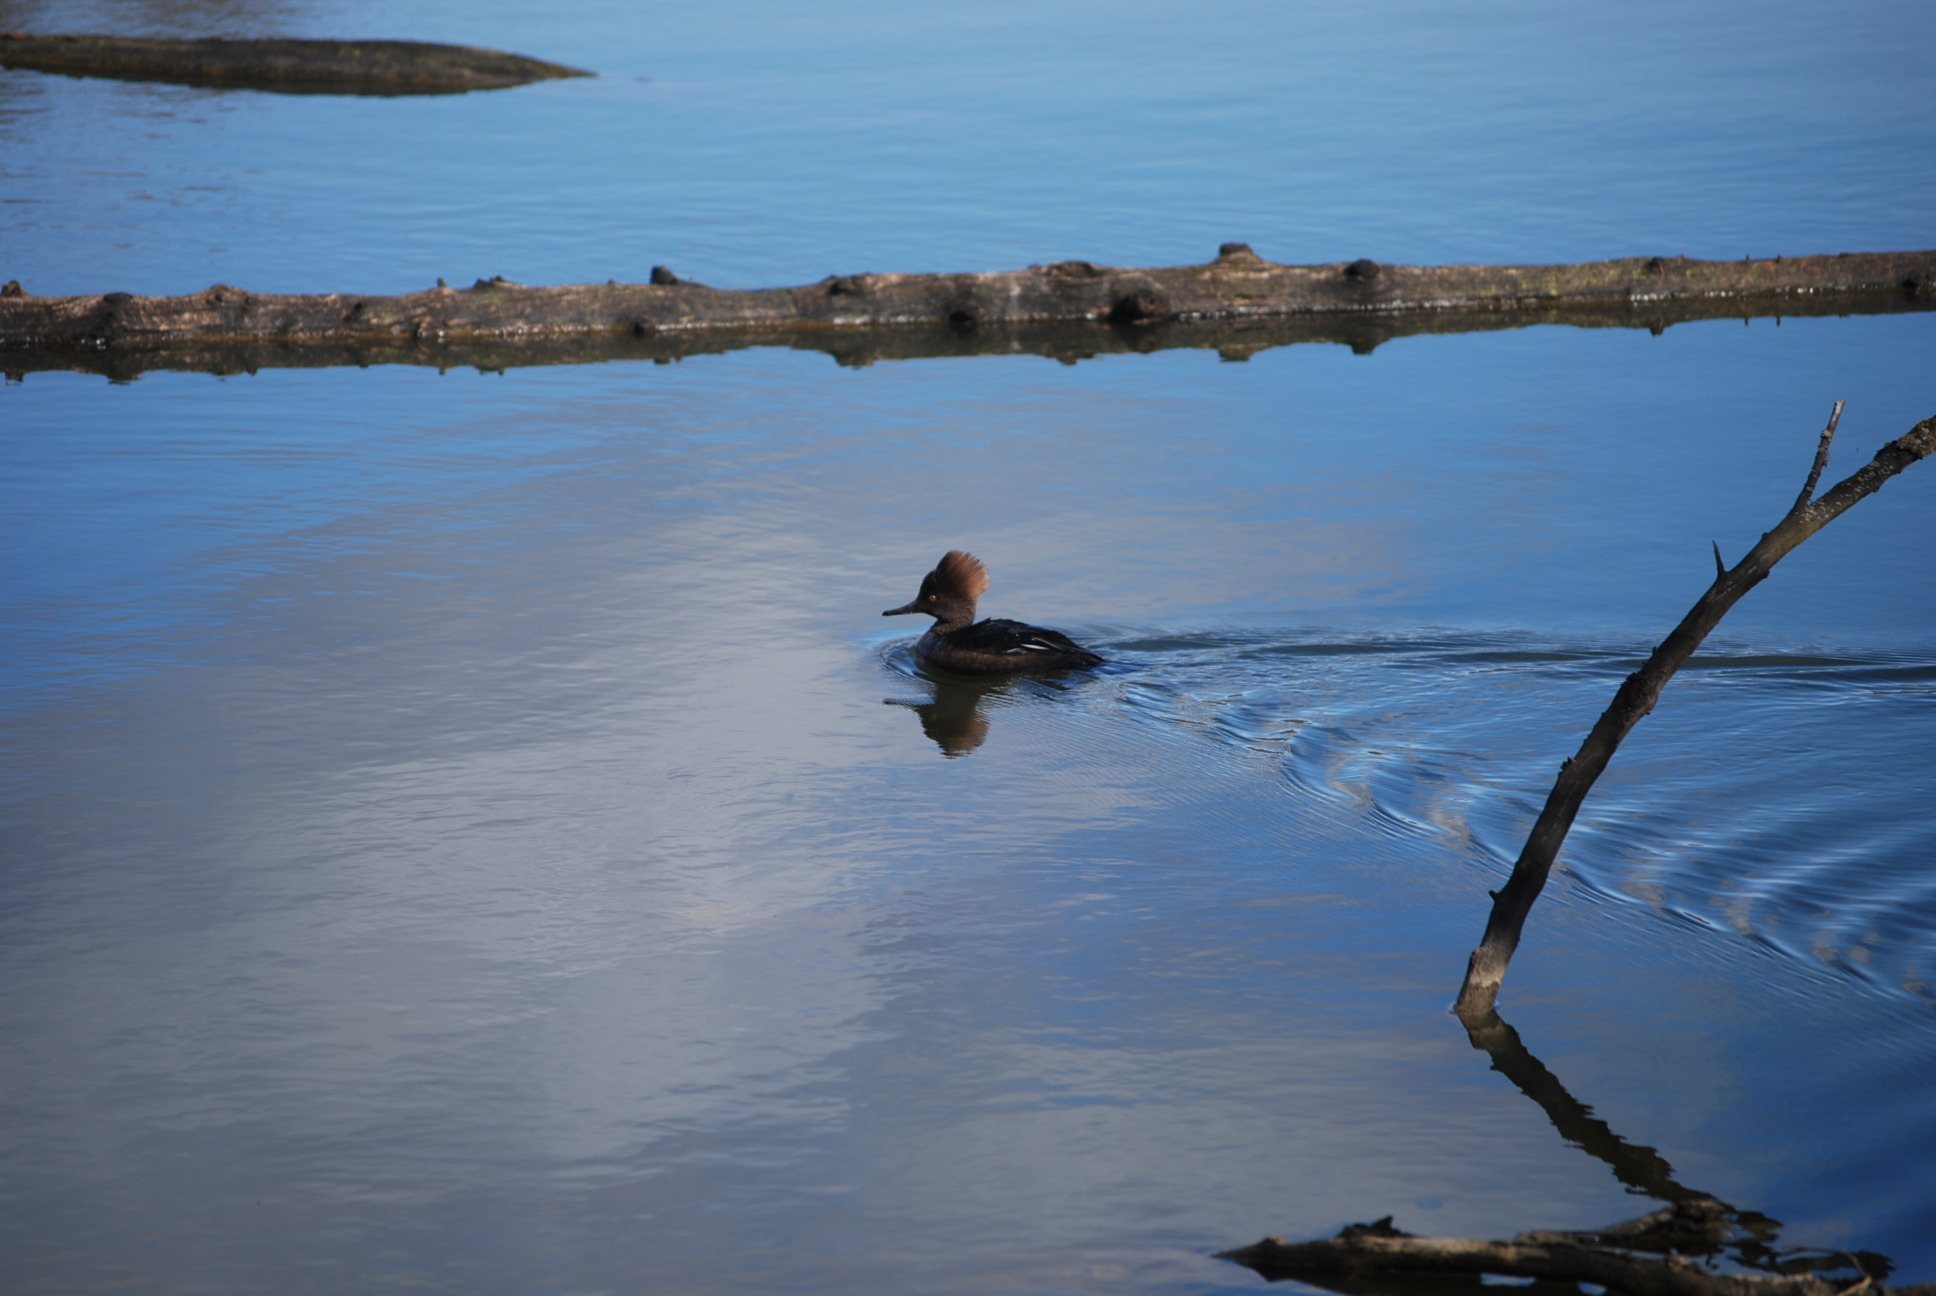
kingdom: Animalia
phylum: Chordata
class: Aves
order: Anseriformes
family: Anatidae
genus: Lophodytes
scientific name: Lophodytes cucullatus
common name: Hooded merganser
